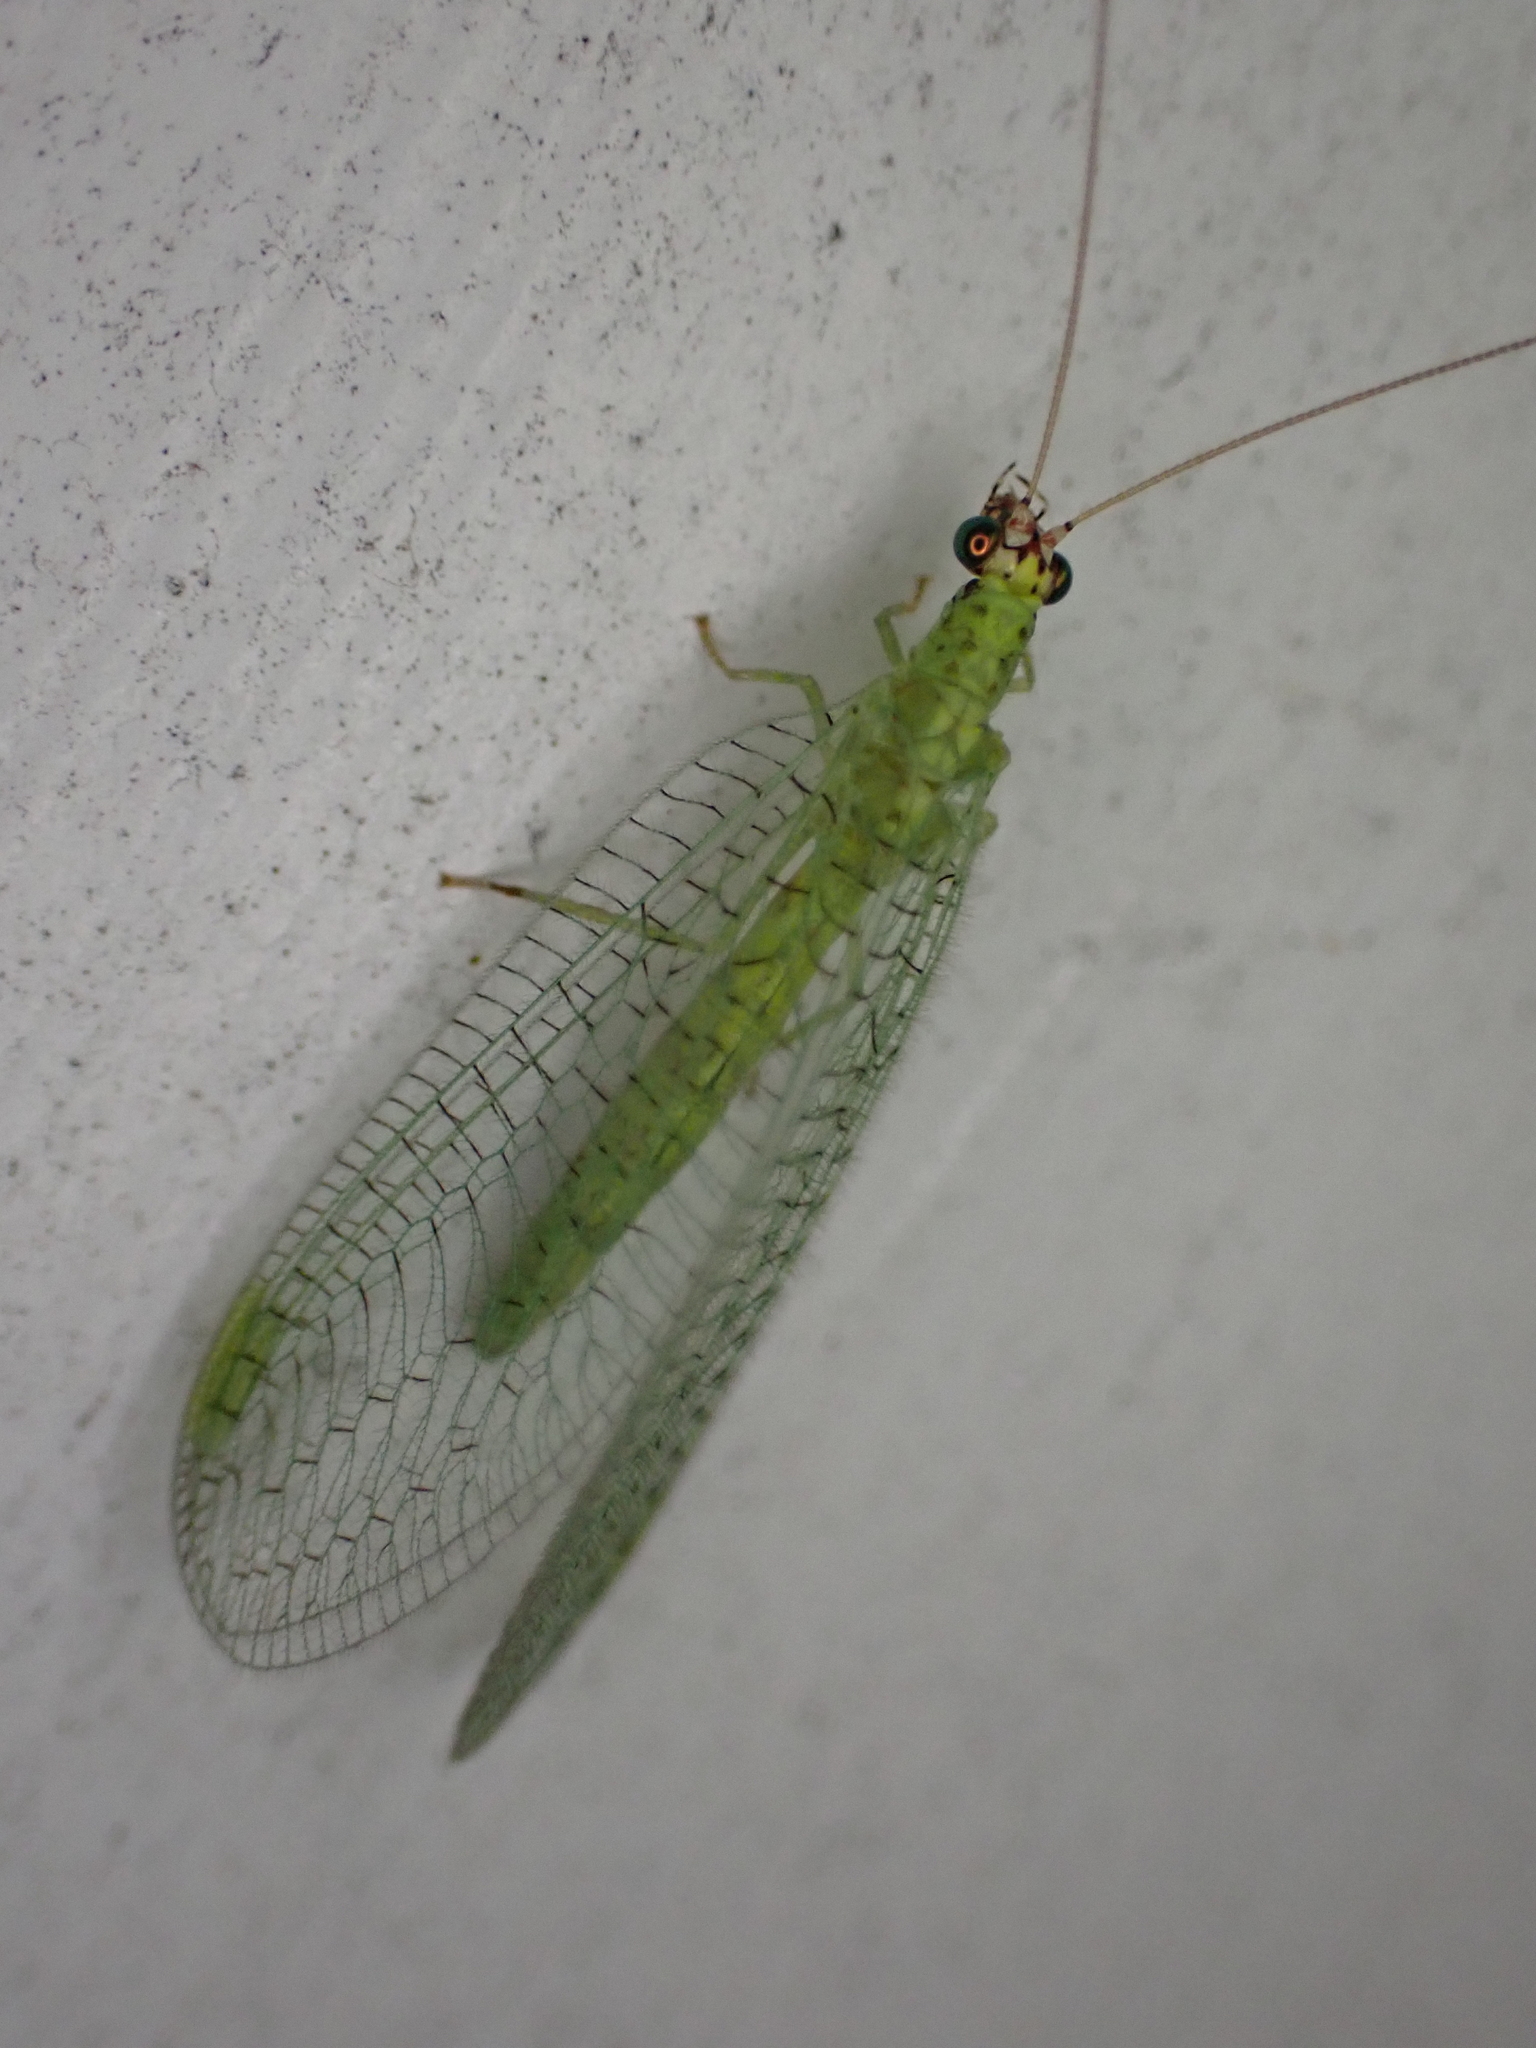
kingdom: Animalia
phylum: Arthropoda
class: Insecta
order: Neuroptera
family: Chrysopidae
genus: Chrysopa
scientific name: Chrysopa oculata
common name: Golden-eyed lacewing
